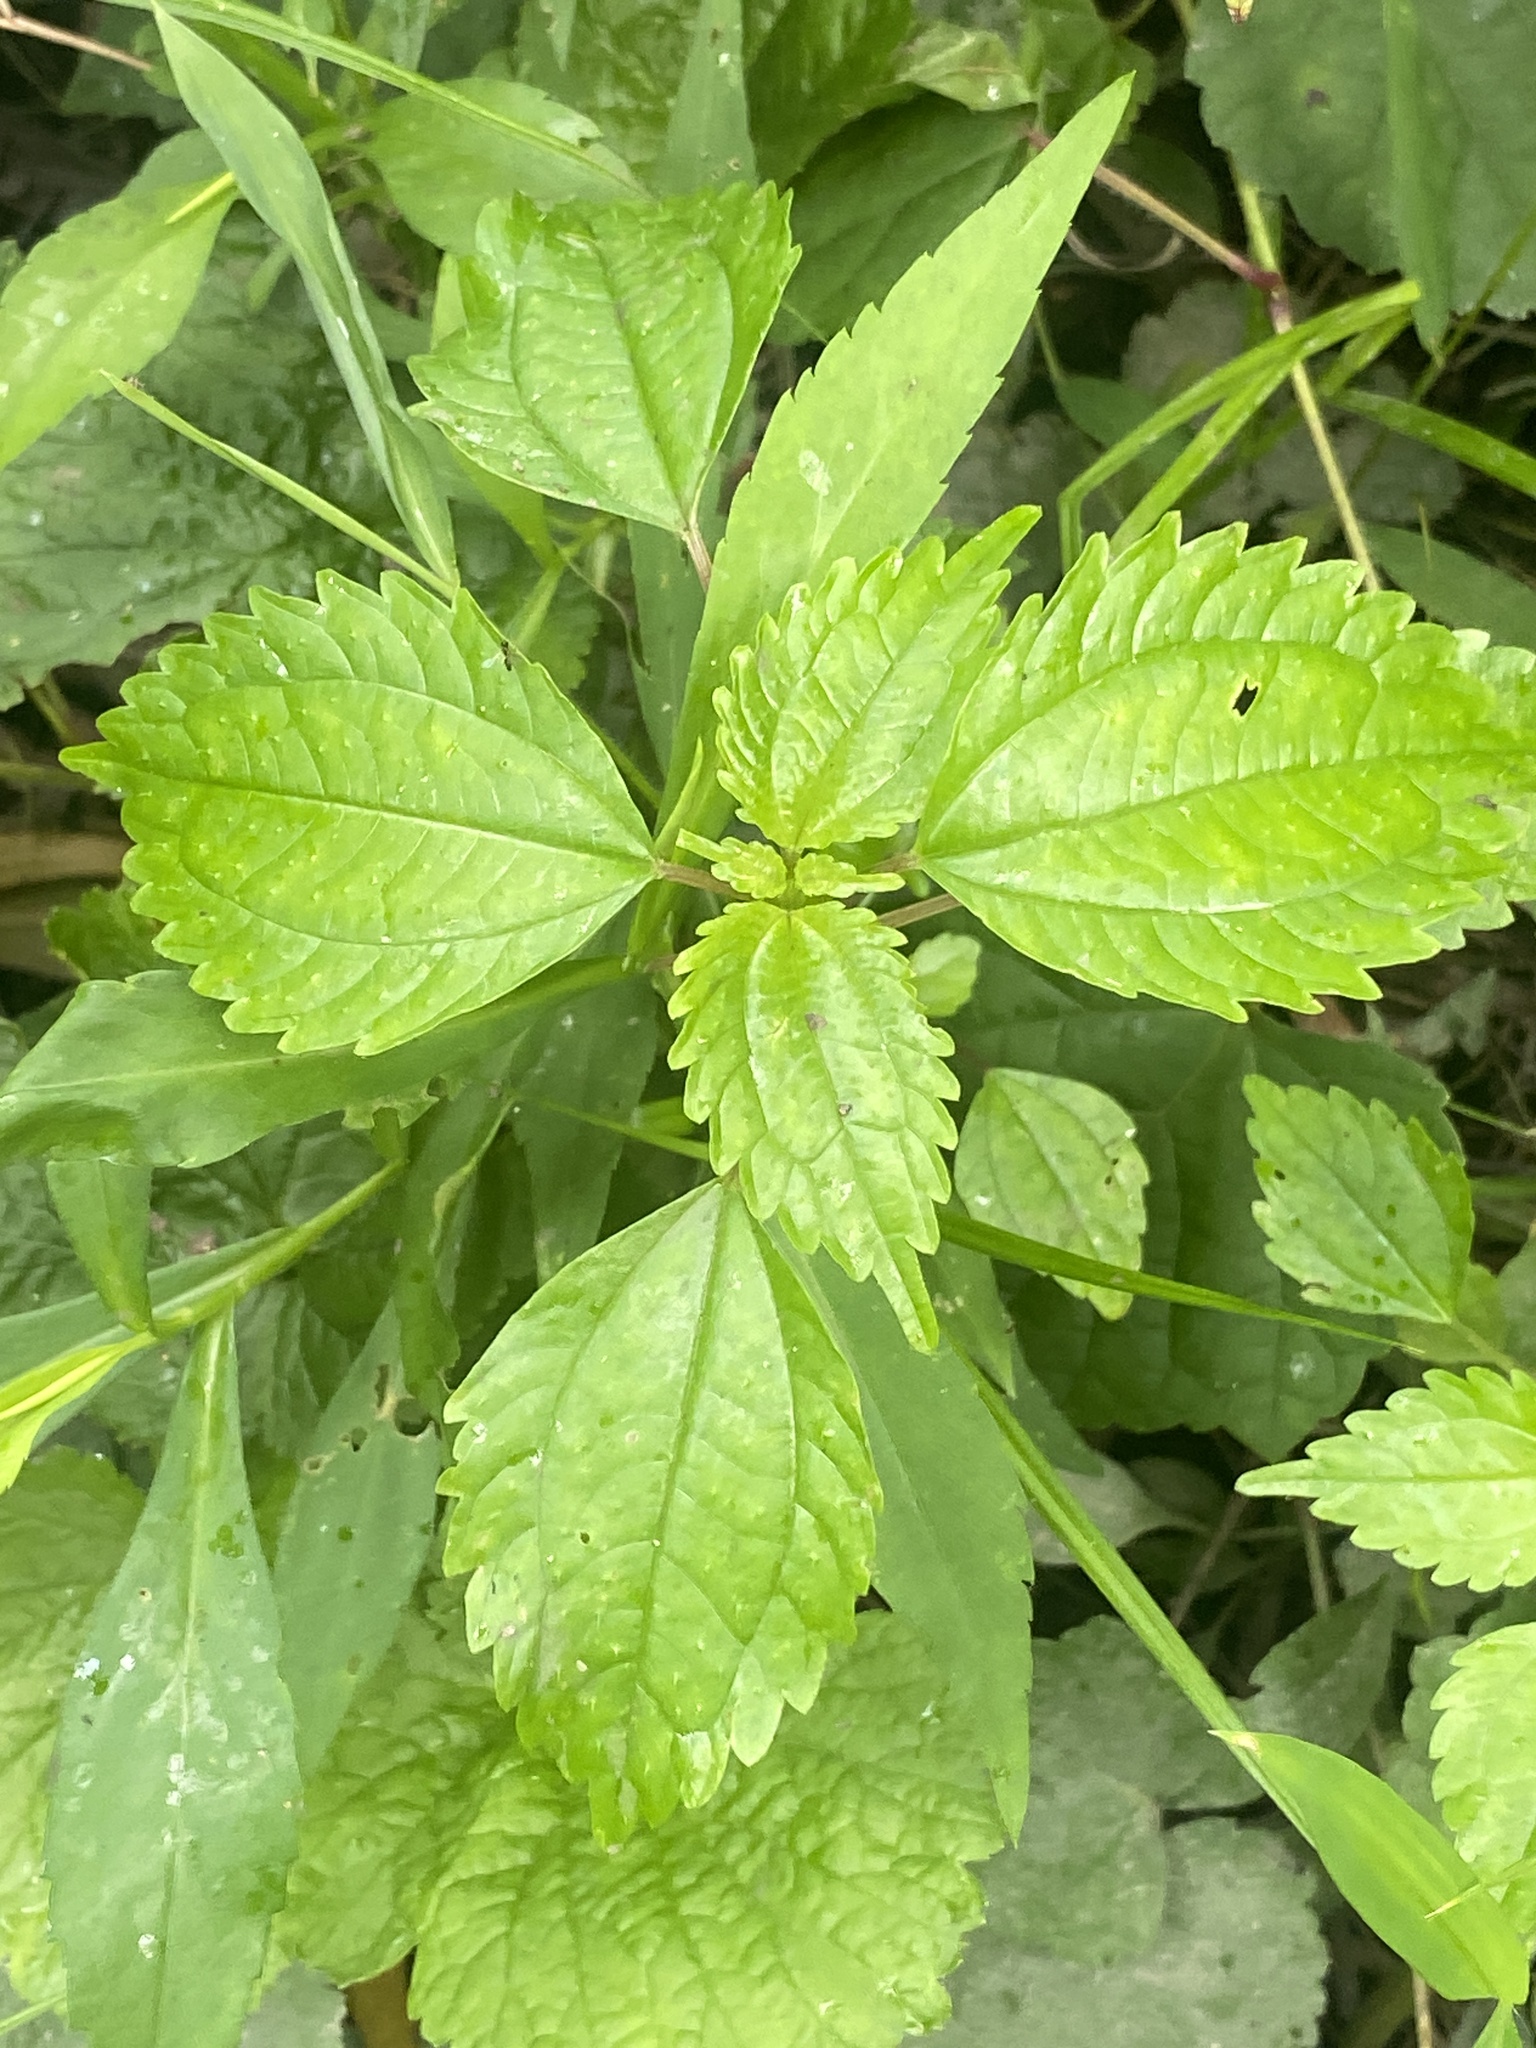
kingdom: Plantae
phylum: Tracheophyta
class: Magnoliopsida
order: Rosales
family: Urticaceae
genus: Pilea
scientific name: Pilea pumila
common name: Clearweed
